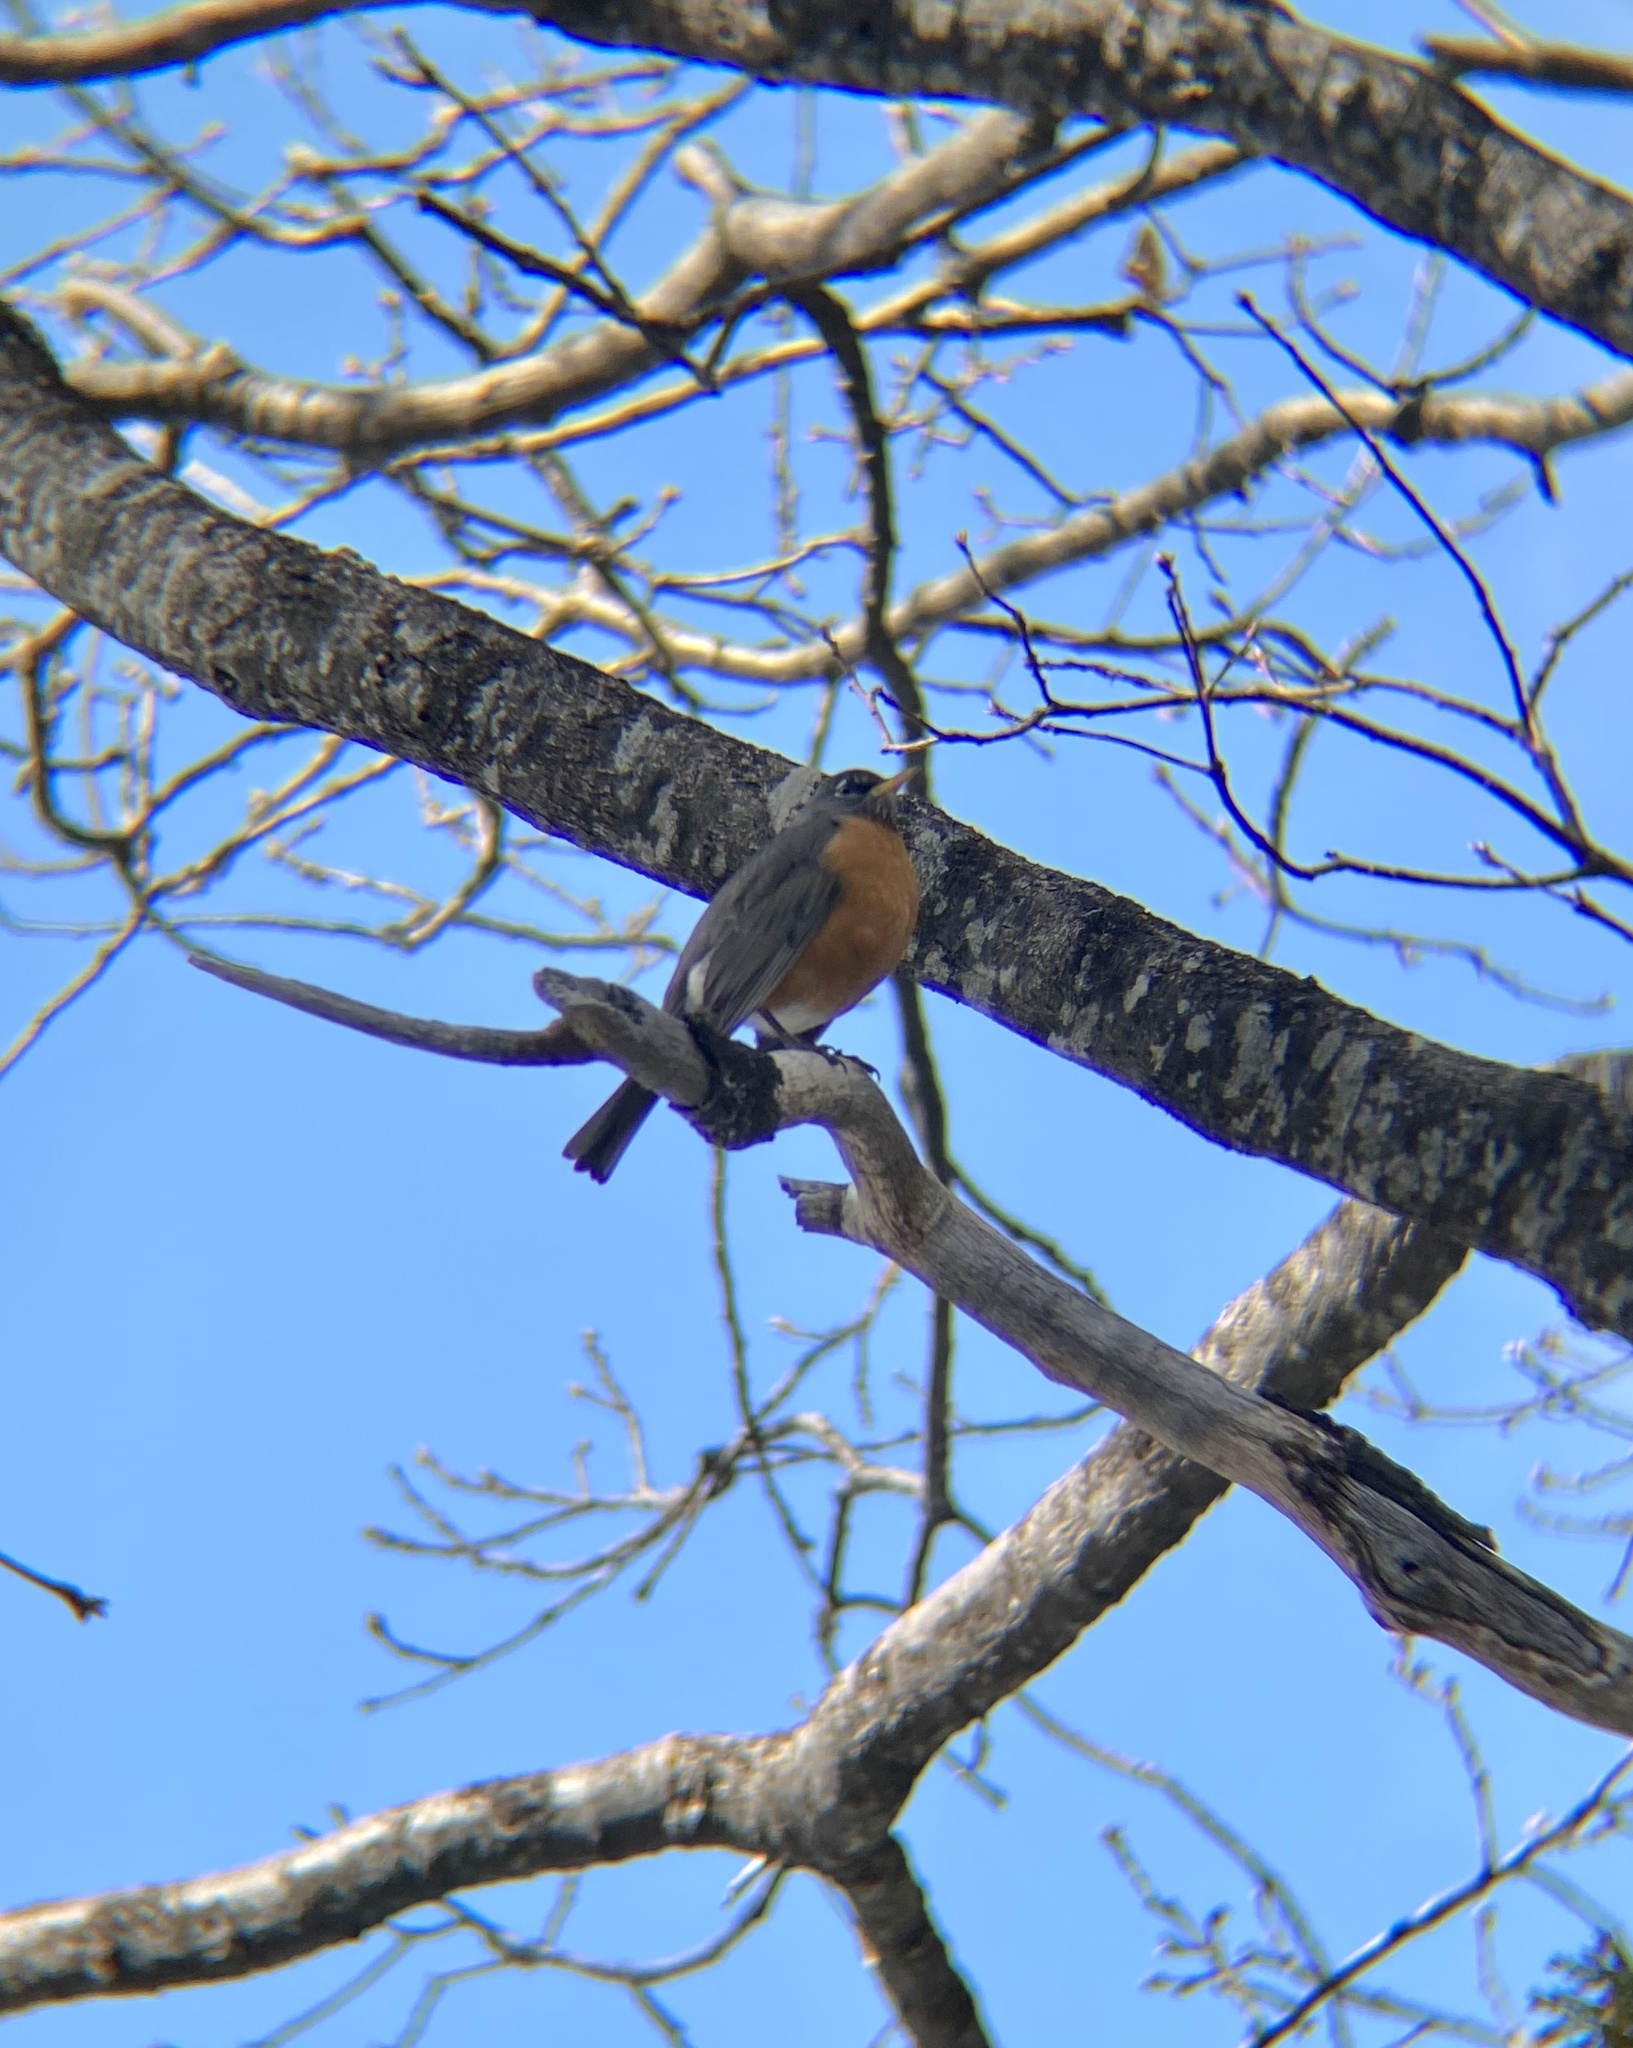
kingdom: Animalia
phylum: Chordata
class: Aves
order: Passeriformes
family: Turdidae
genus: Turdus
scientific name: Turdus migratorius
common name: American robin
